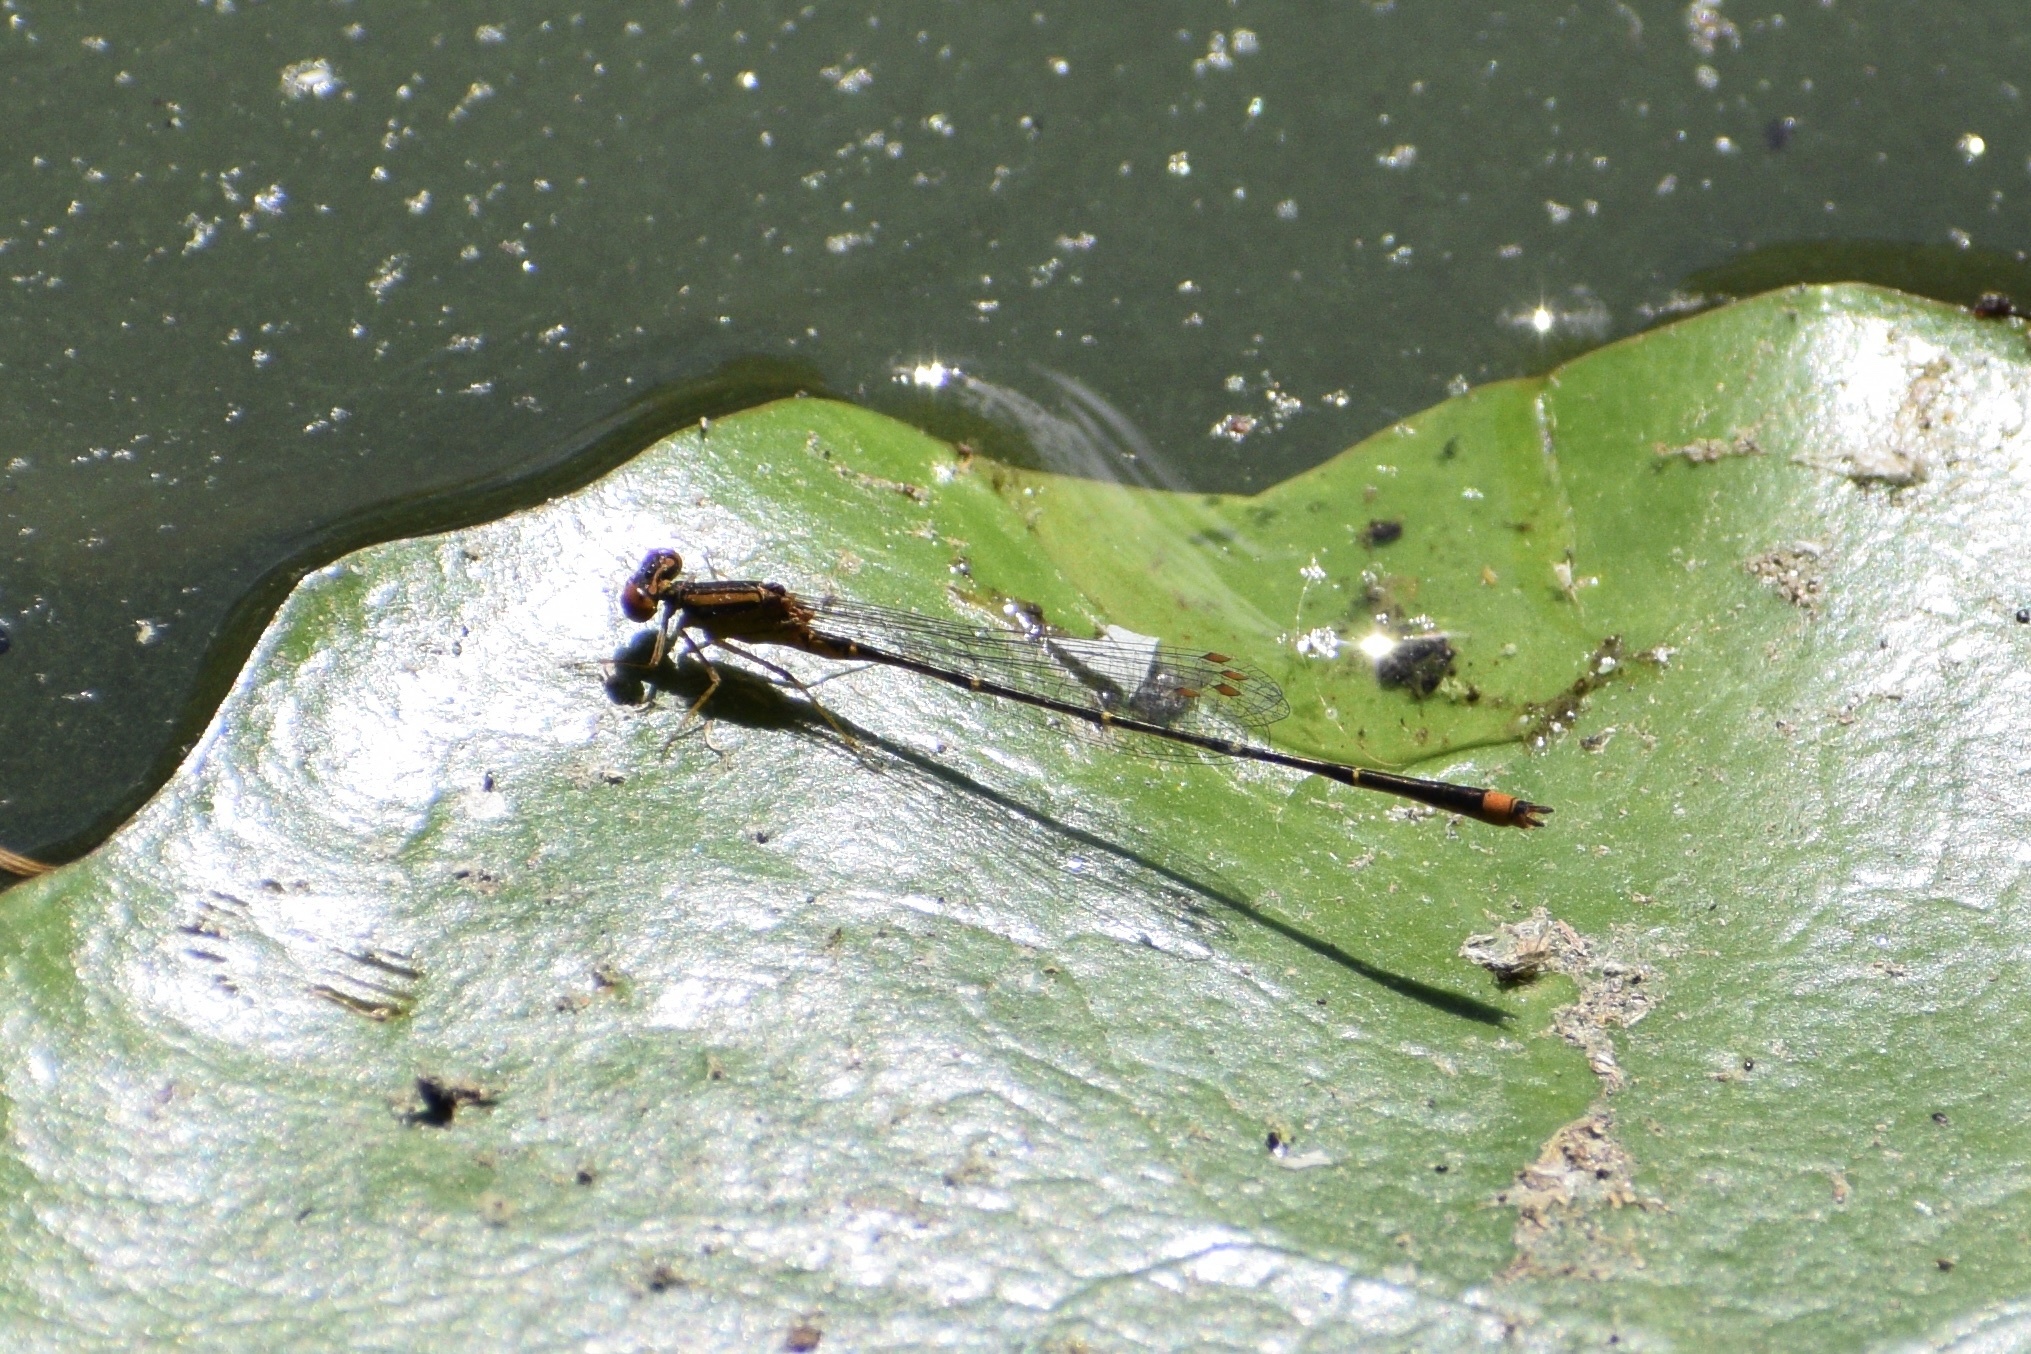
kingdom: Animalia
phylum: Arthropoda
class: Insecta
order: Odonata
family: Coenagrionidae
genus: Enallagma
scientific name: Enallagma signatum
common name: Orange bluet
